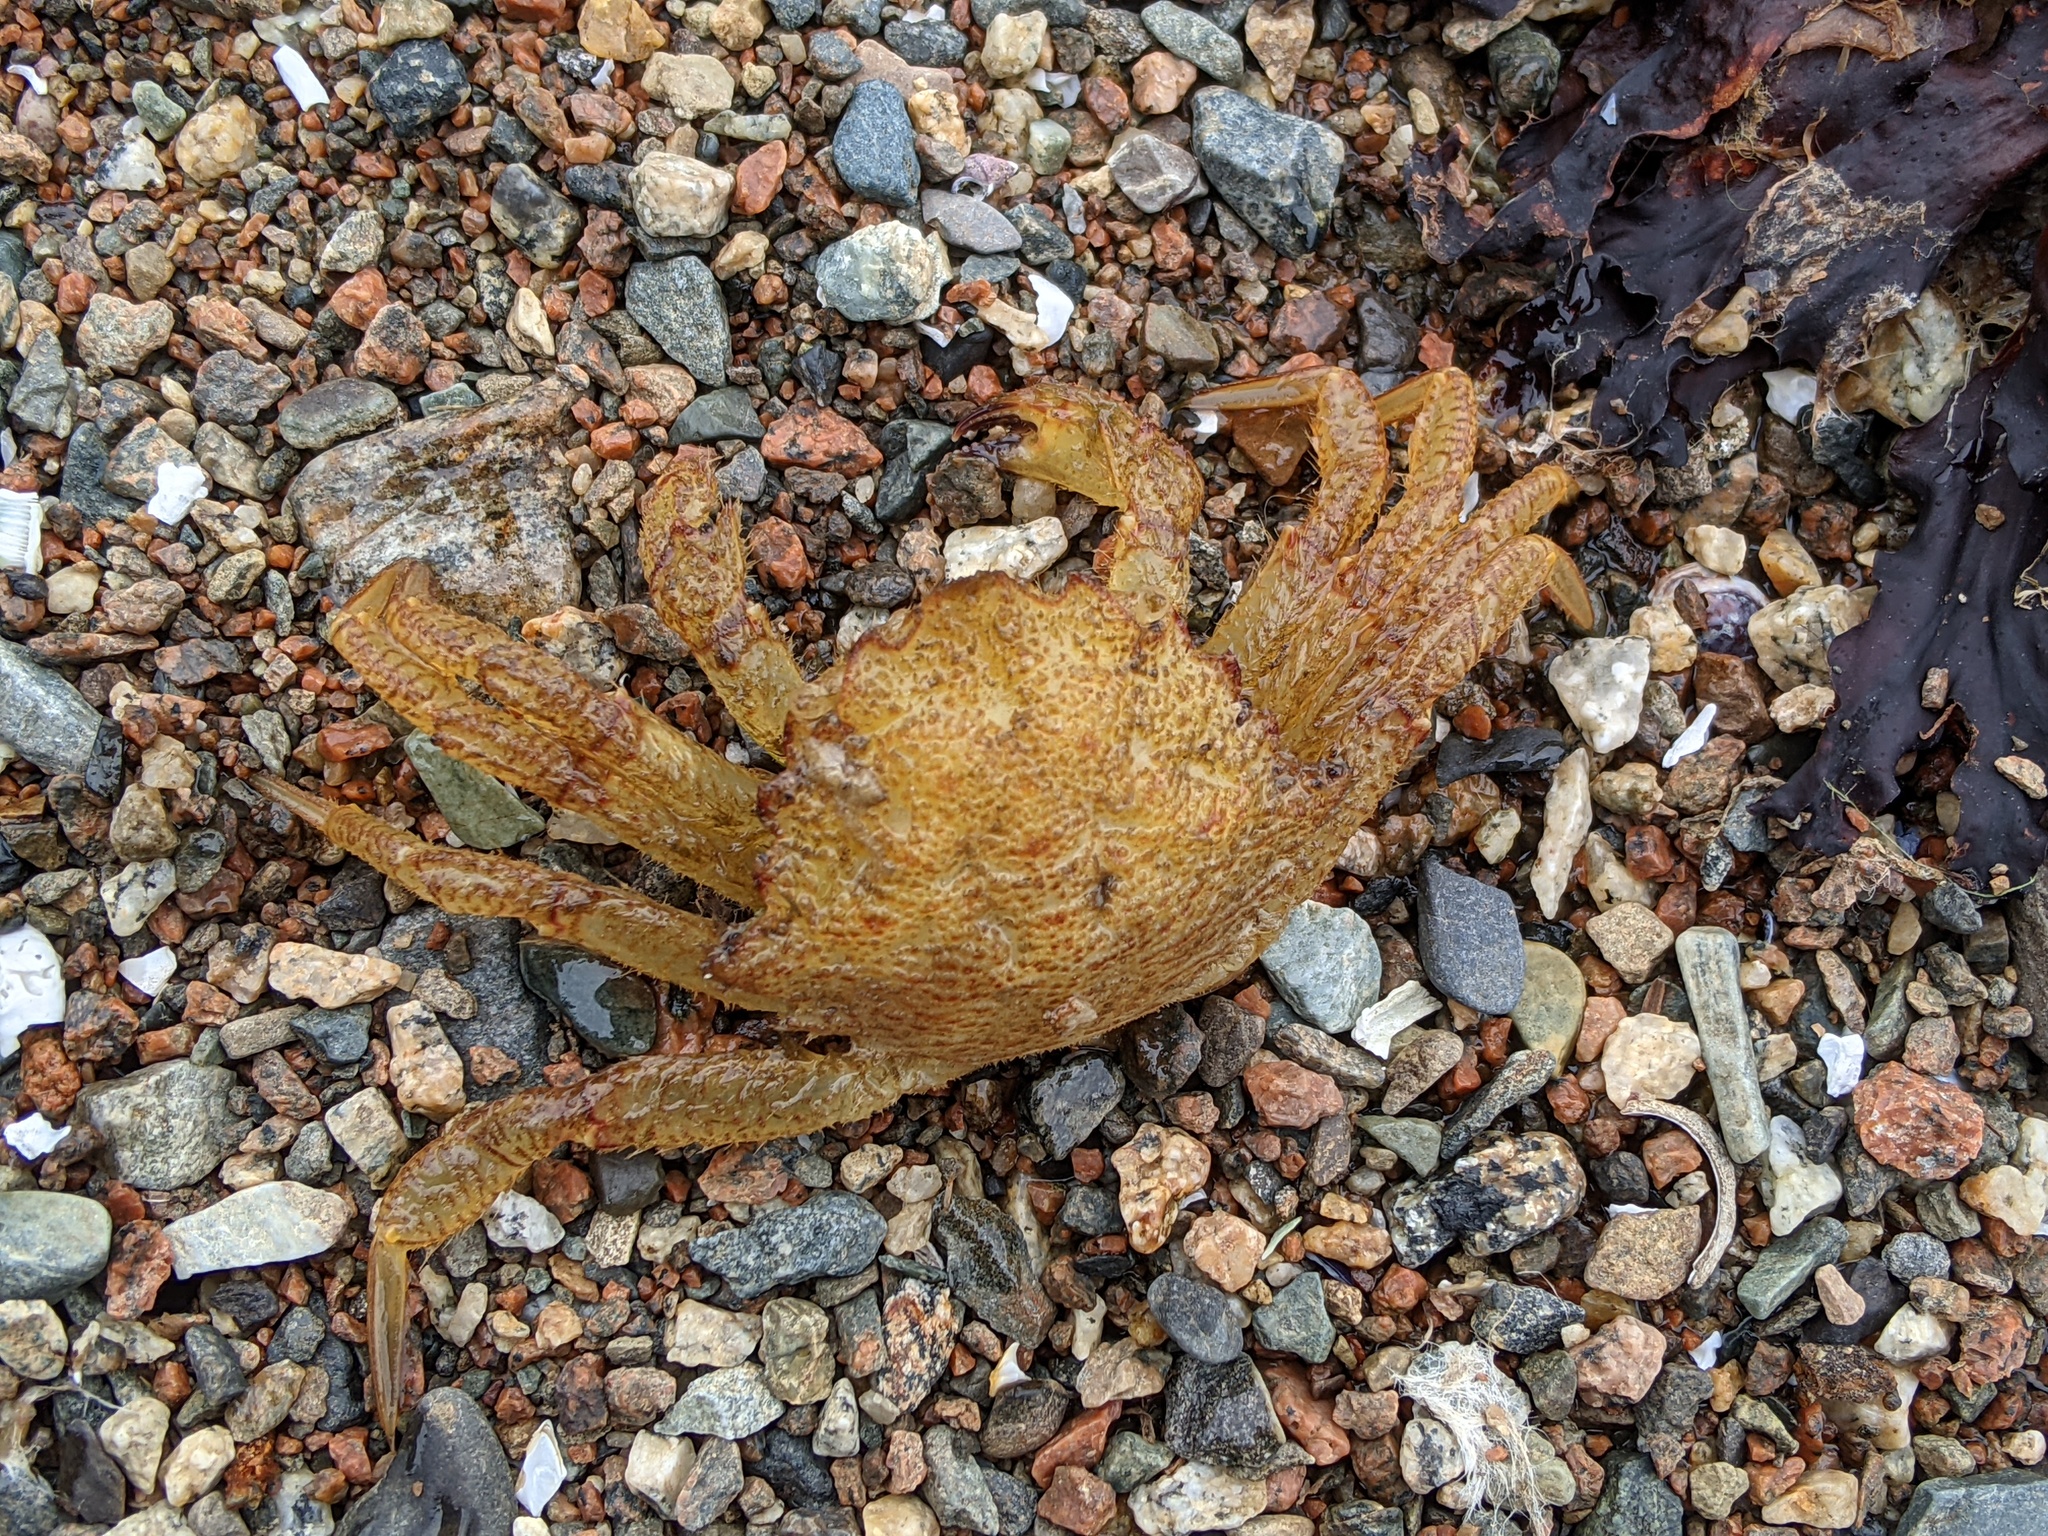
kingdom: Animalia
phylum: Arthropoda
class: Malacostraca
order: Decapoda
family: Cheiragonidae
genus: Telmessus
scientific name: Telmessus cheiragonus
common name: Helmet crab
